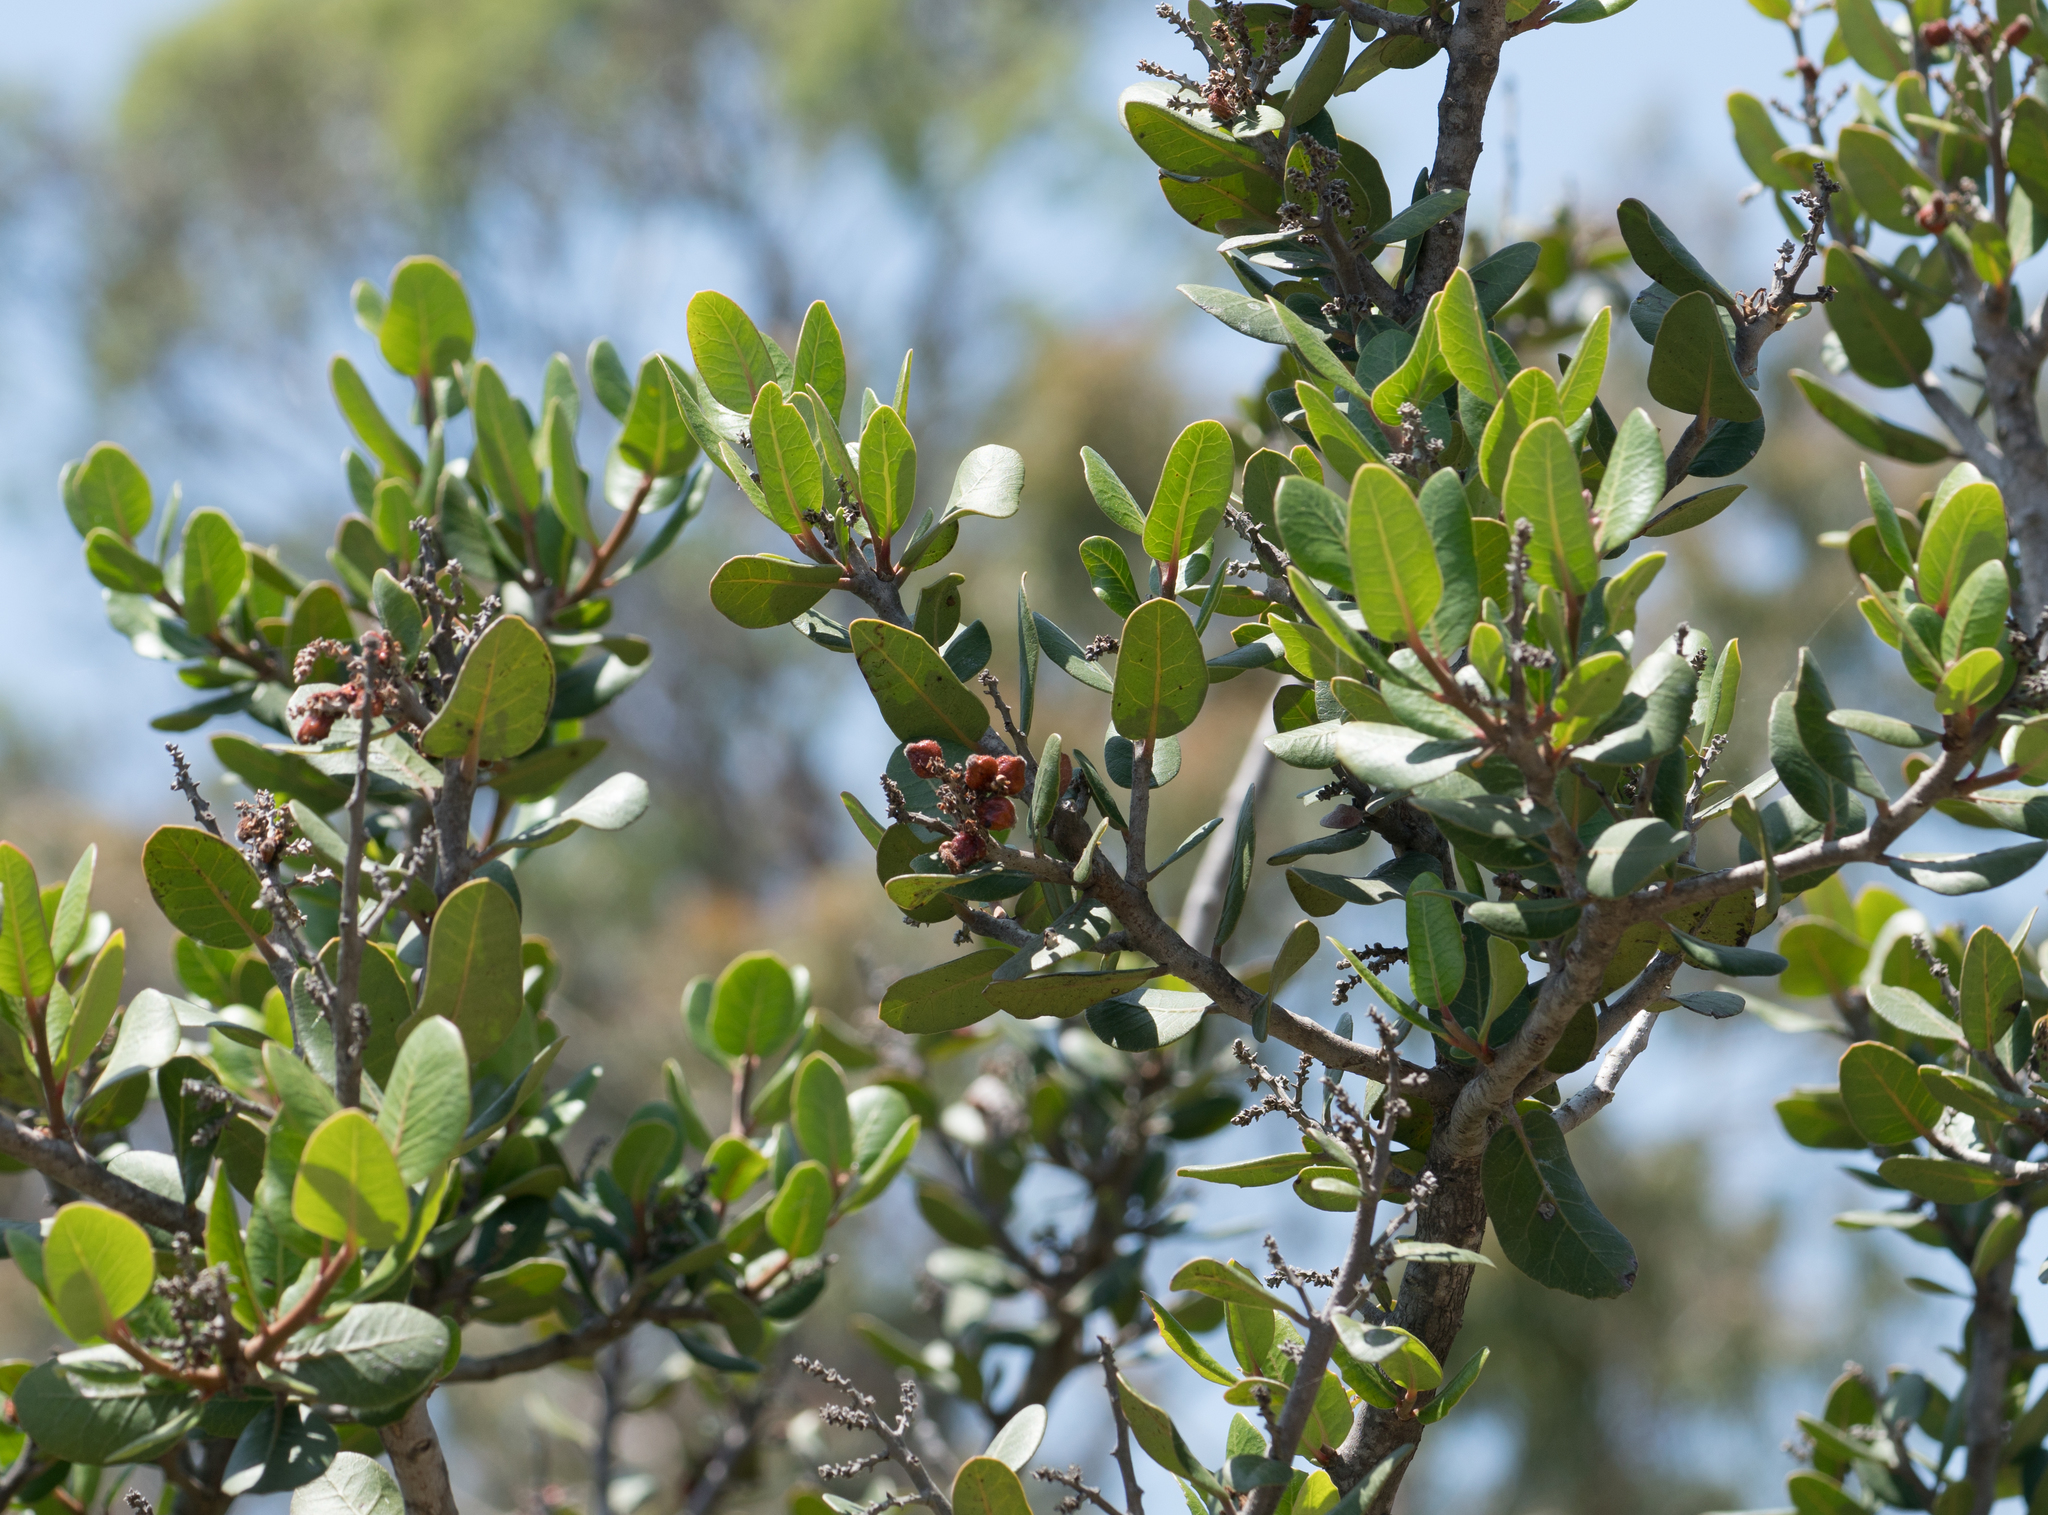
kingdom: Plantae
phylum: Tracheophyta
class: Magnoliopsida
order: Sapindales
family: Anacardiaceae
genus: Rhus
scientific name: Rhus integrifolia
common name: Lemonade sumac
